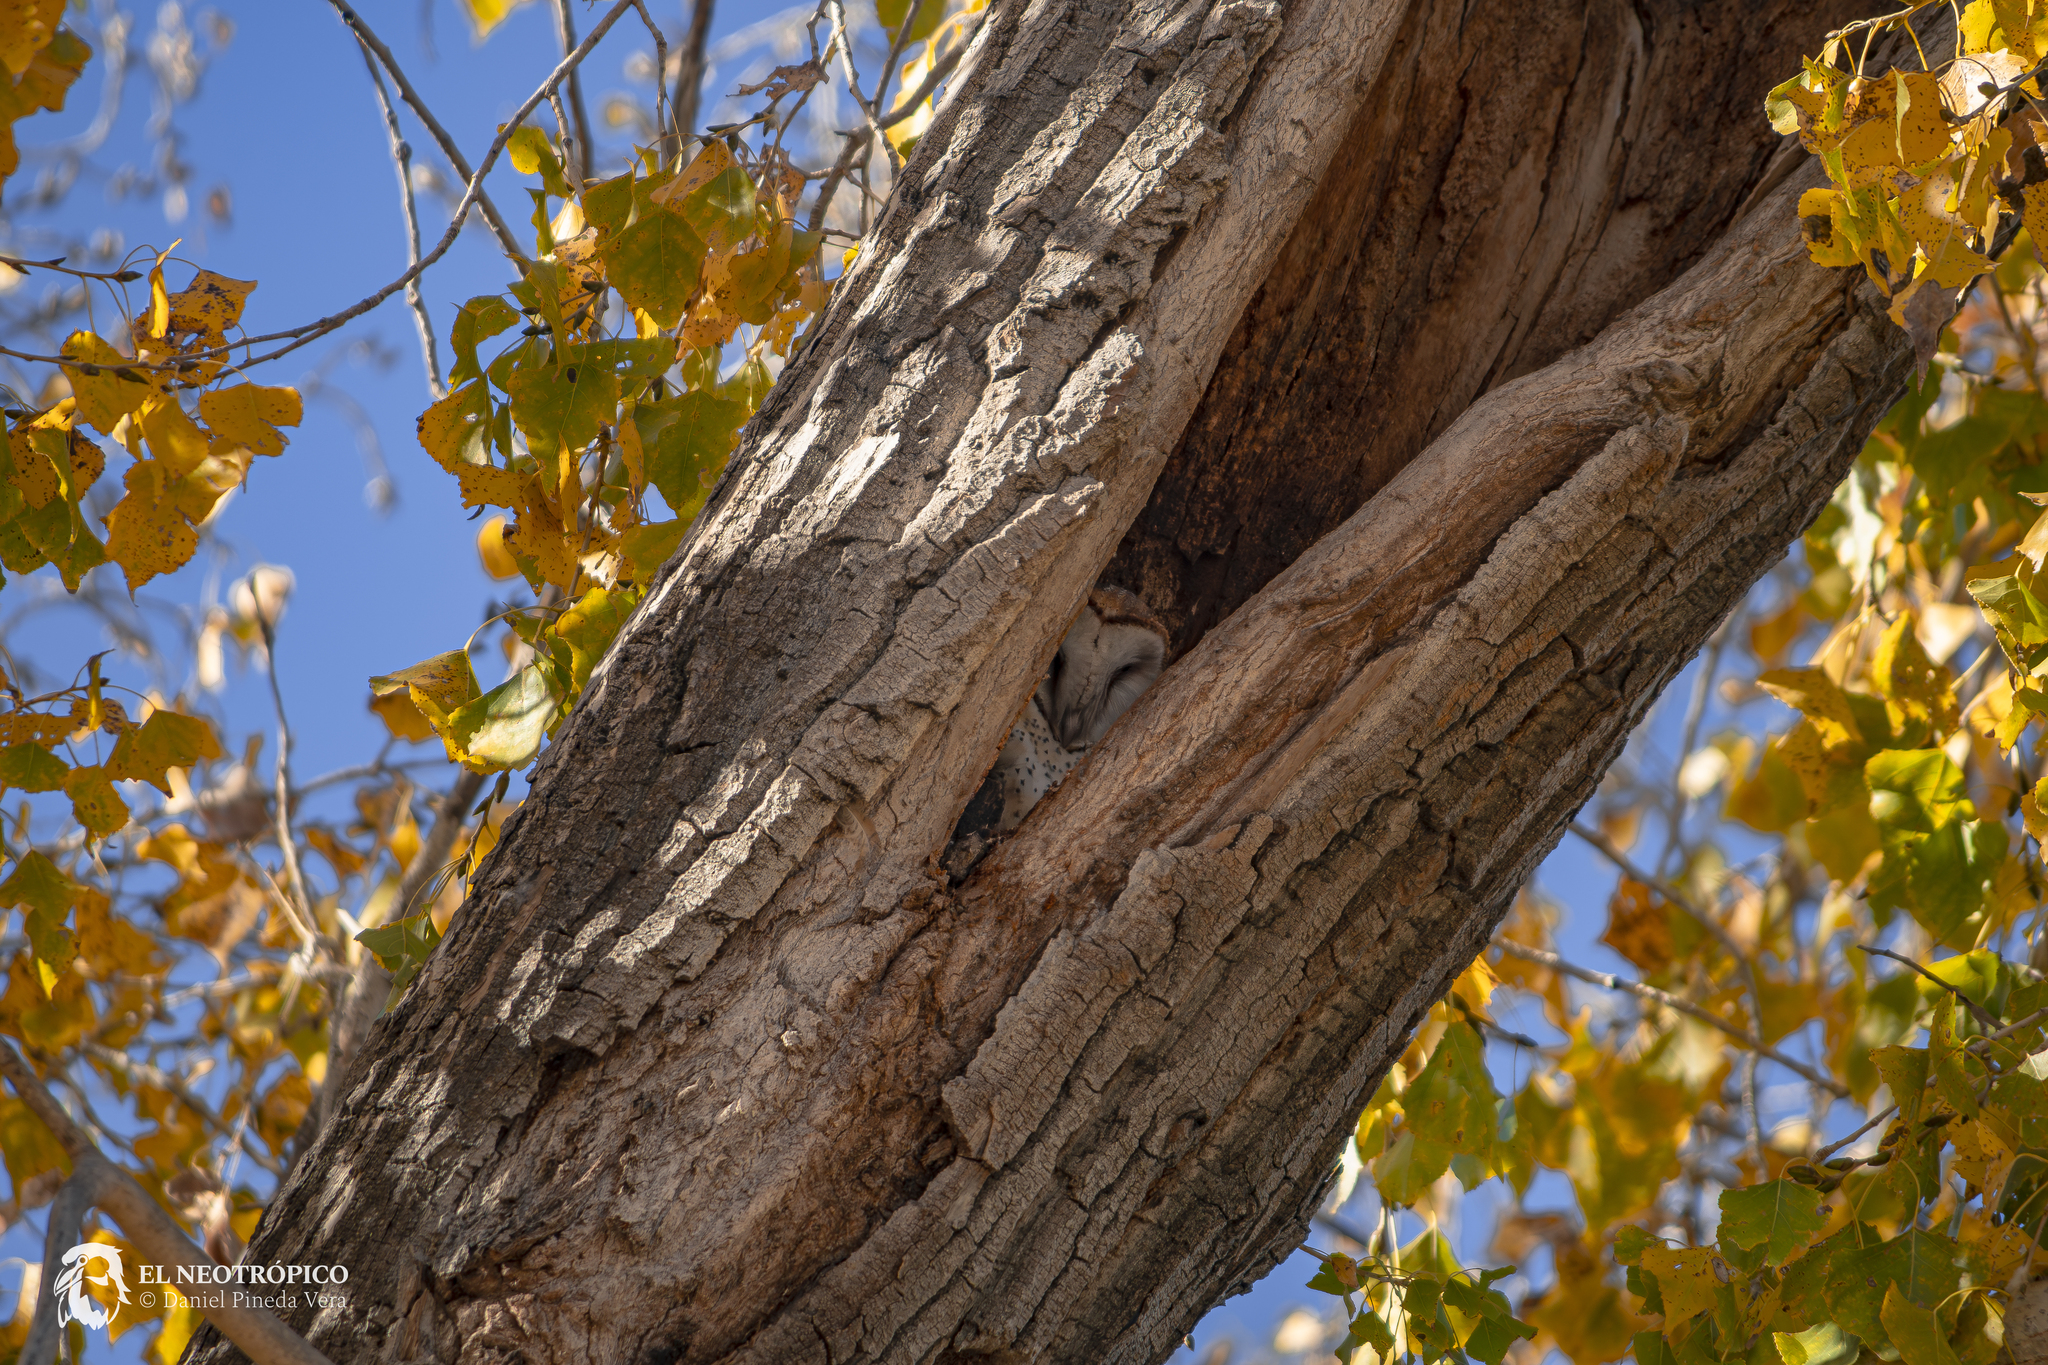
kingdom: Animalia
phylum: Chordata
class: Aves
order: Strigiformes
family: Tytonidae
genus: Tyto
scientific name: Tyto alba
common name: Barn owl
